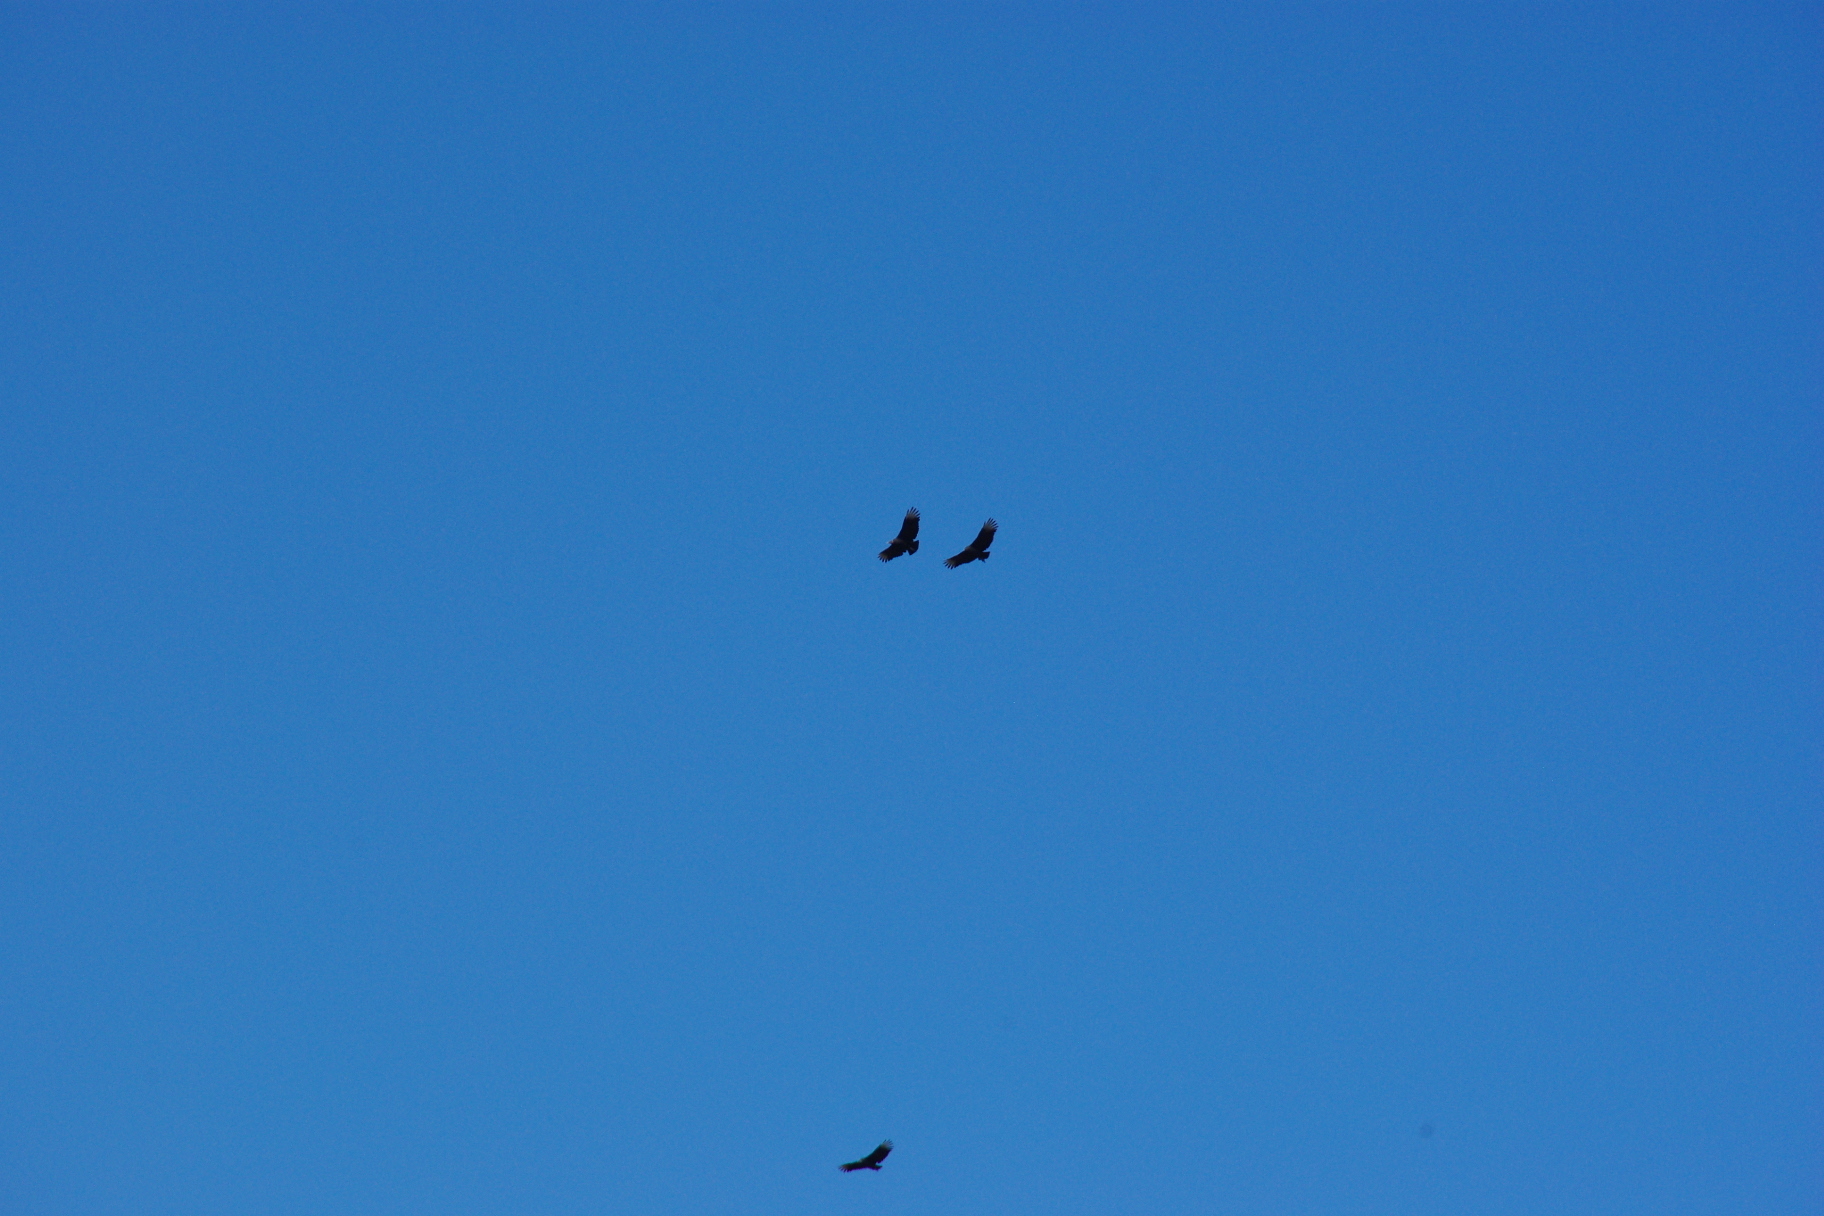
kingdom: Animalia
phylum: Chordata
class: Aves
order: Accipitriformes
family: Cathartidae
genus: Coragyps
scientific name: Coragyps atratus
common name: Black vulture
